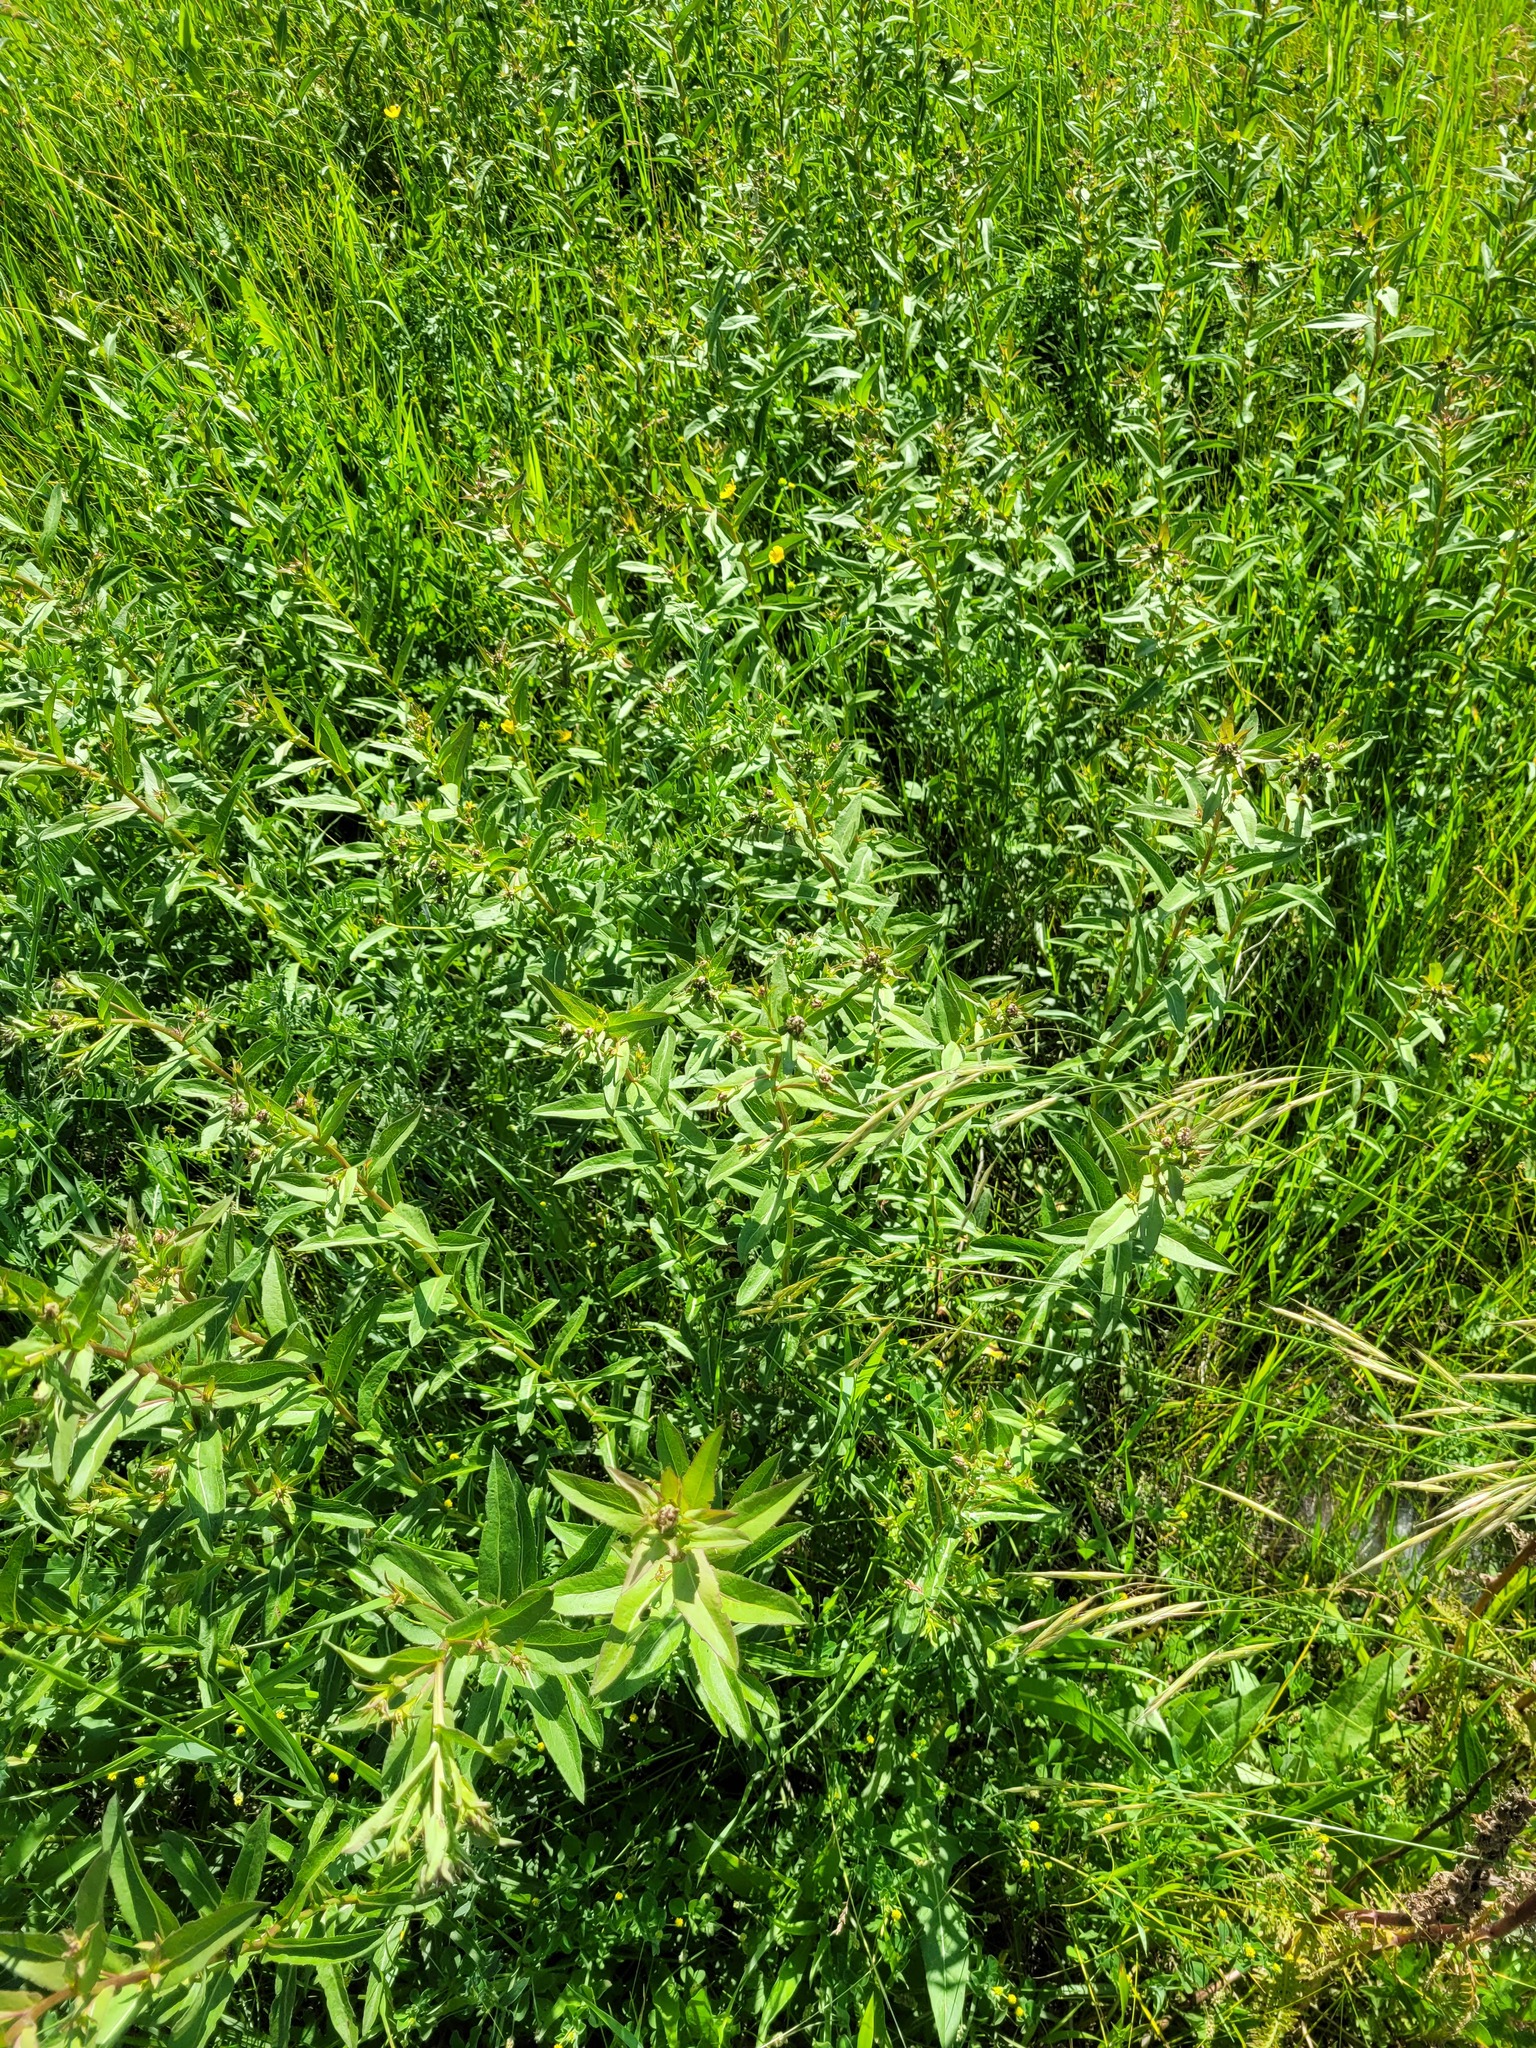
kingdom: Plantae
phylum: Tracheophyta
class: Magnoliopsida
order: Asterales
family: Asteraceae
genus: Pentanema
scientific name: Pentanema asperum
